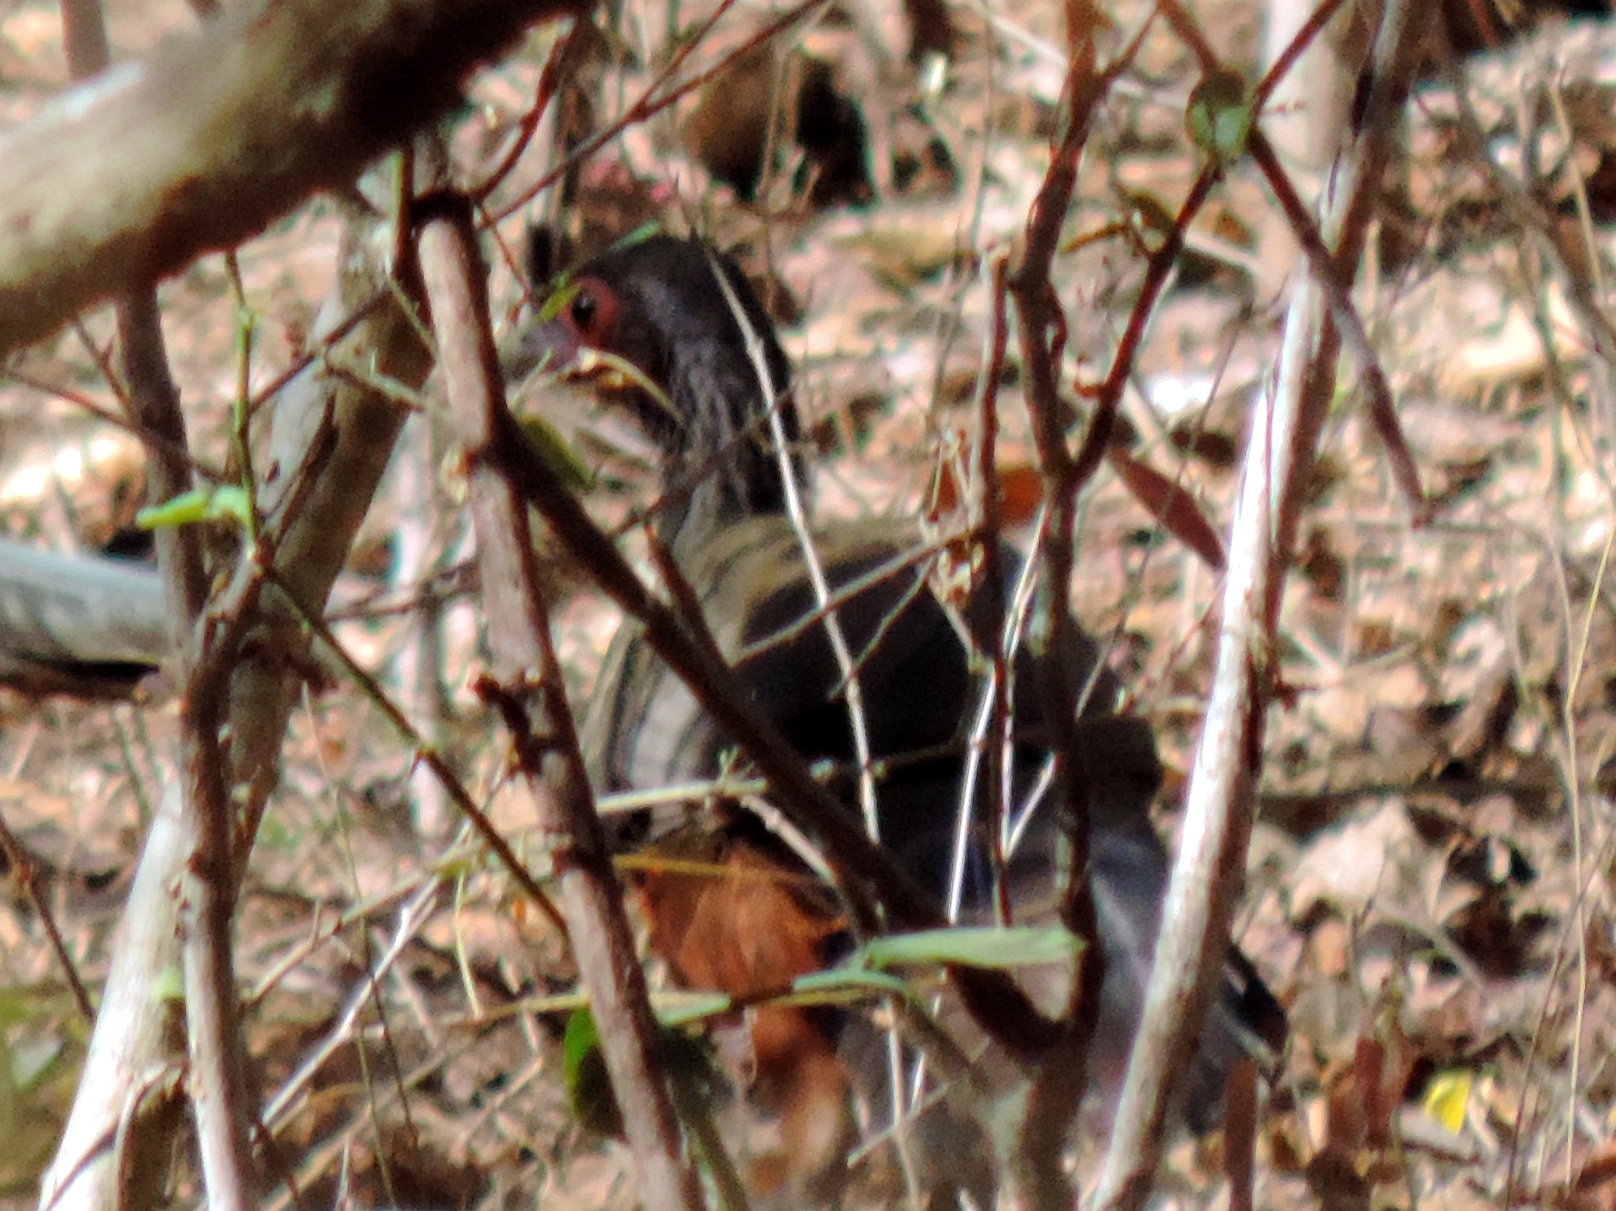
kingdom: Animalia
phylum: Chordata
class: Aves
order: Galliformes
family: Cracidae
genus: Ortalis
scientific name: Ortalis wagleri
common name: Rufous-bellied chachalaca
